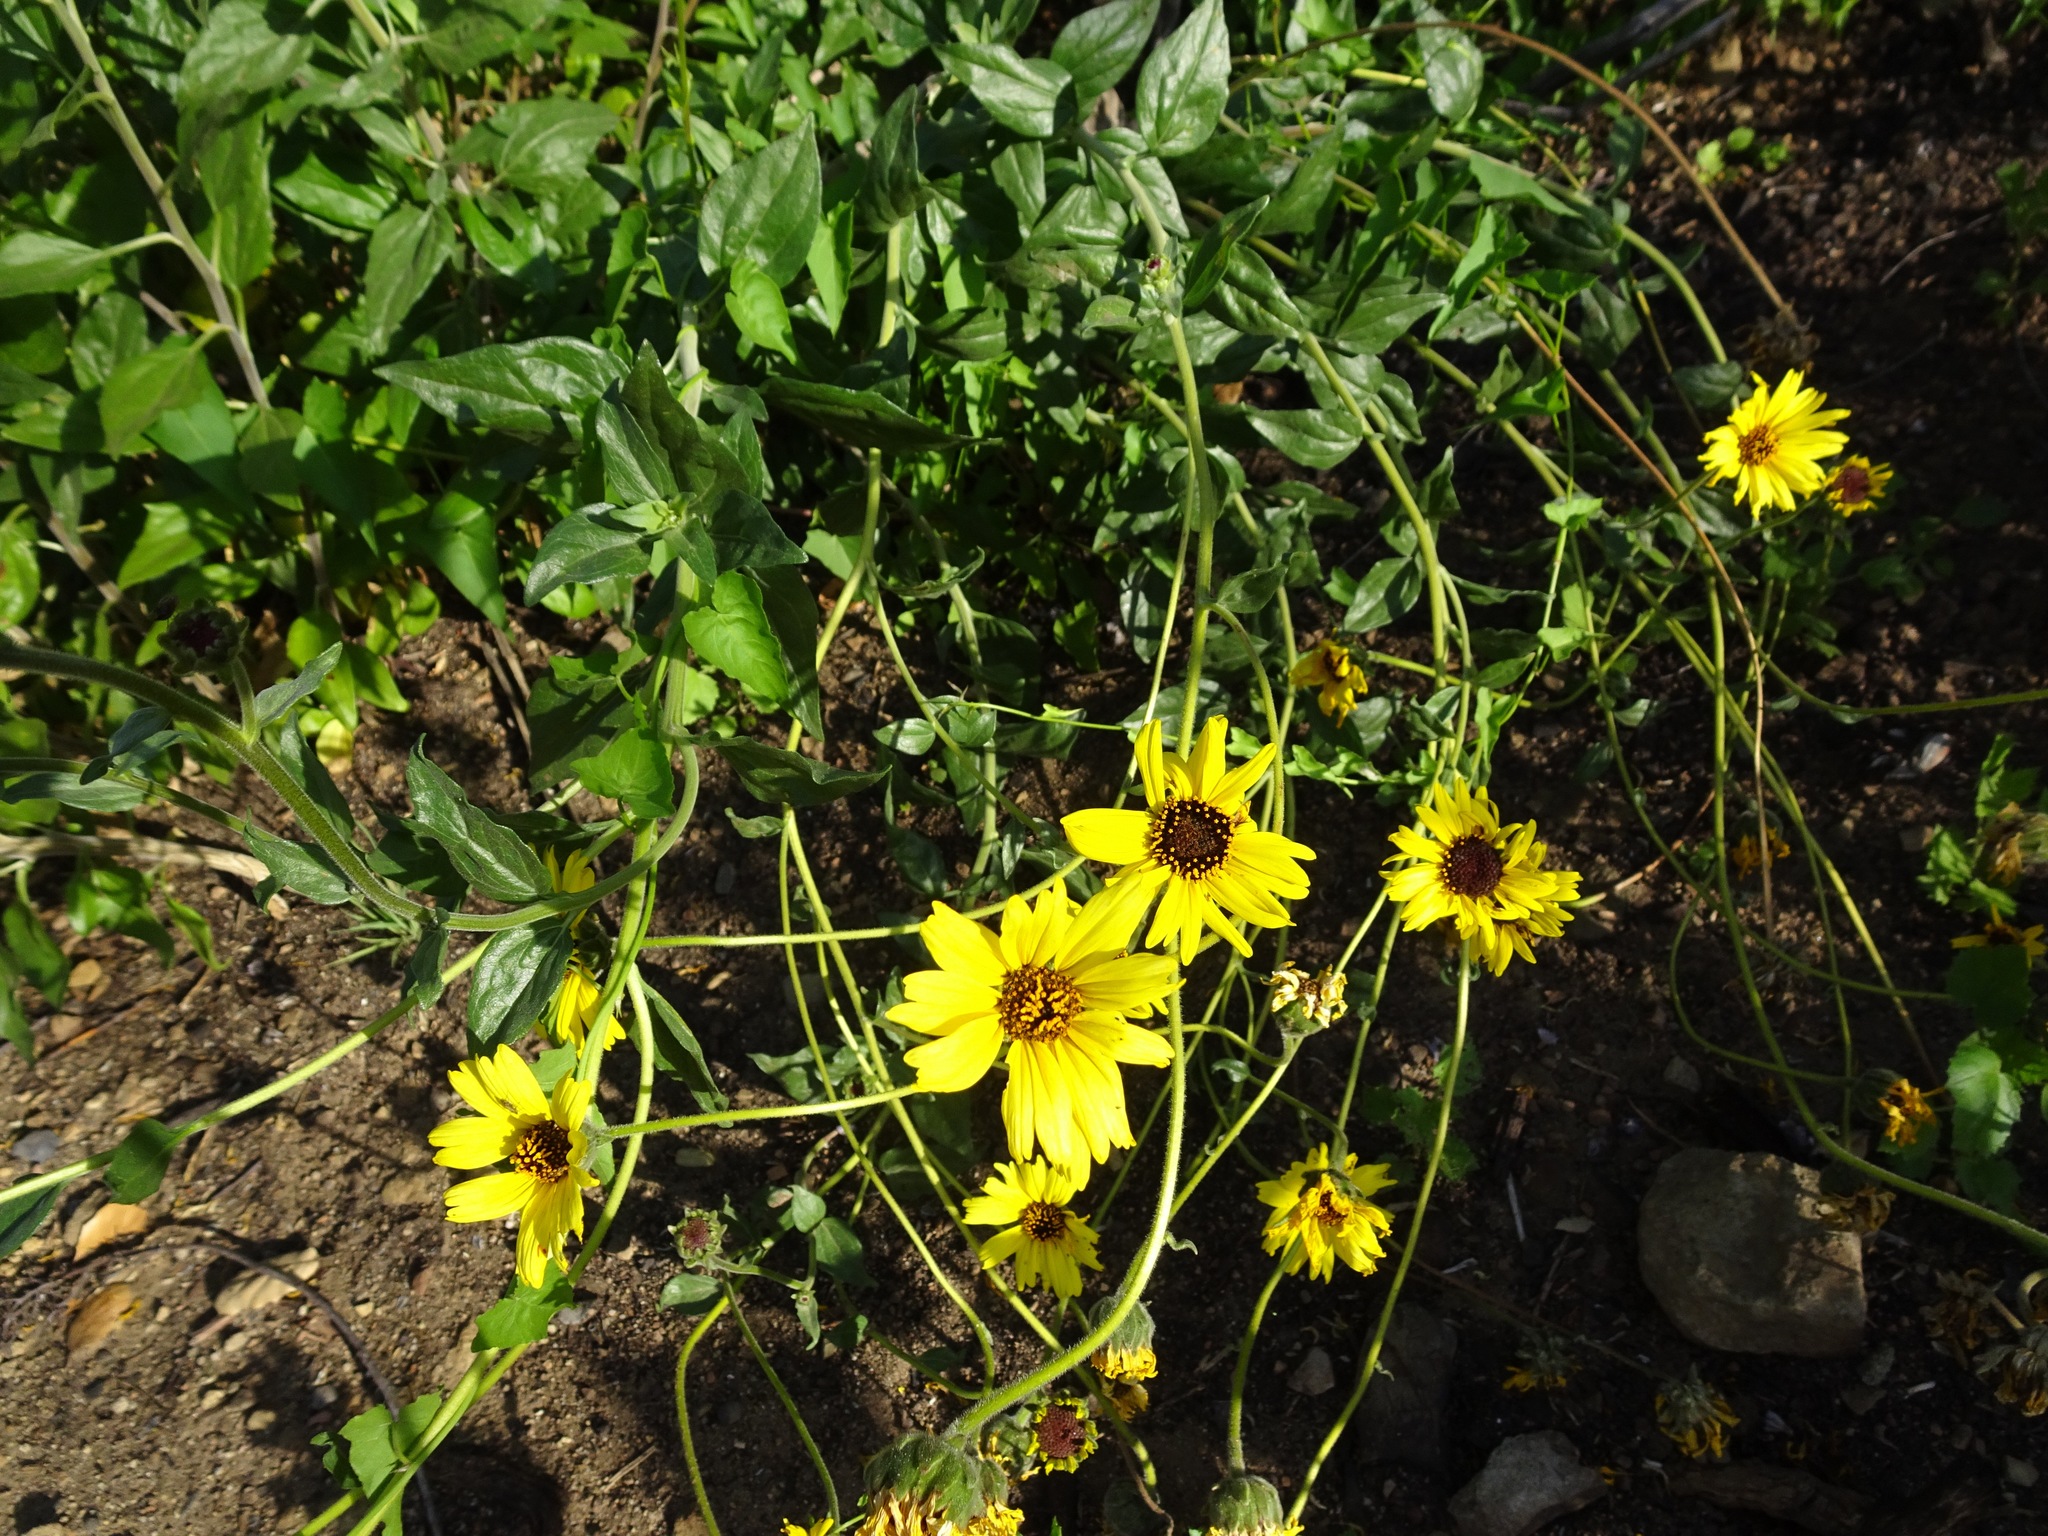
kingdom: Plantae
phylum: Tracheophyta
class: Magnoliopsida
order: Asterales
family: Asteraceae
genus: Encelia
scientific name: Encelia californica
